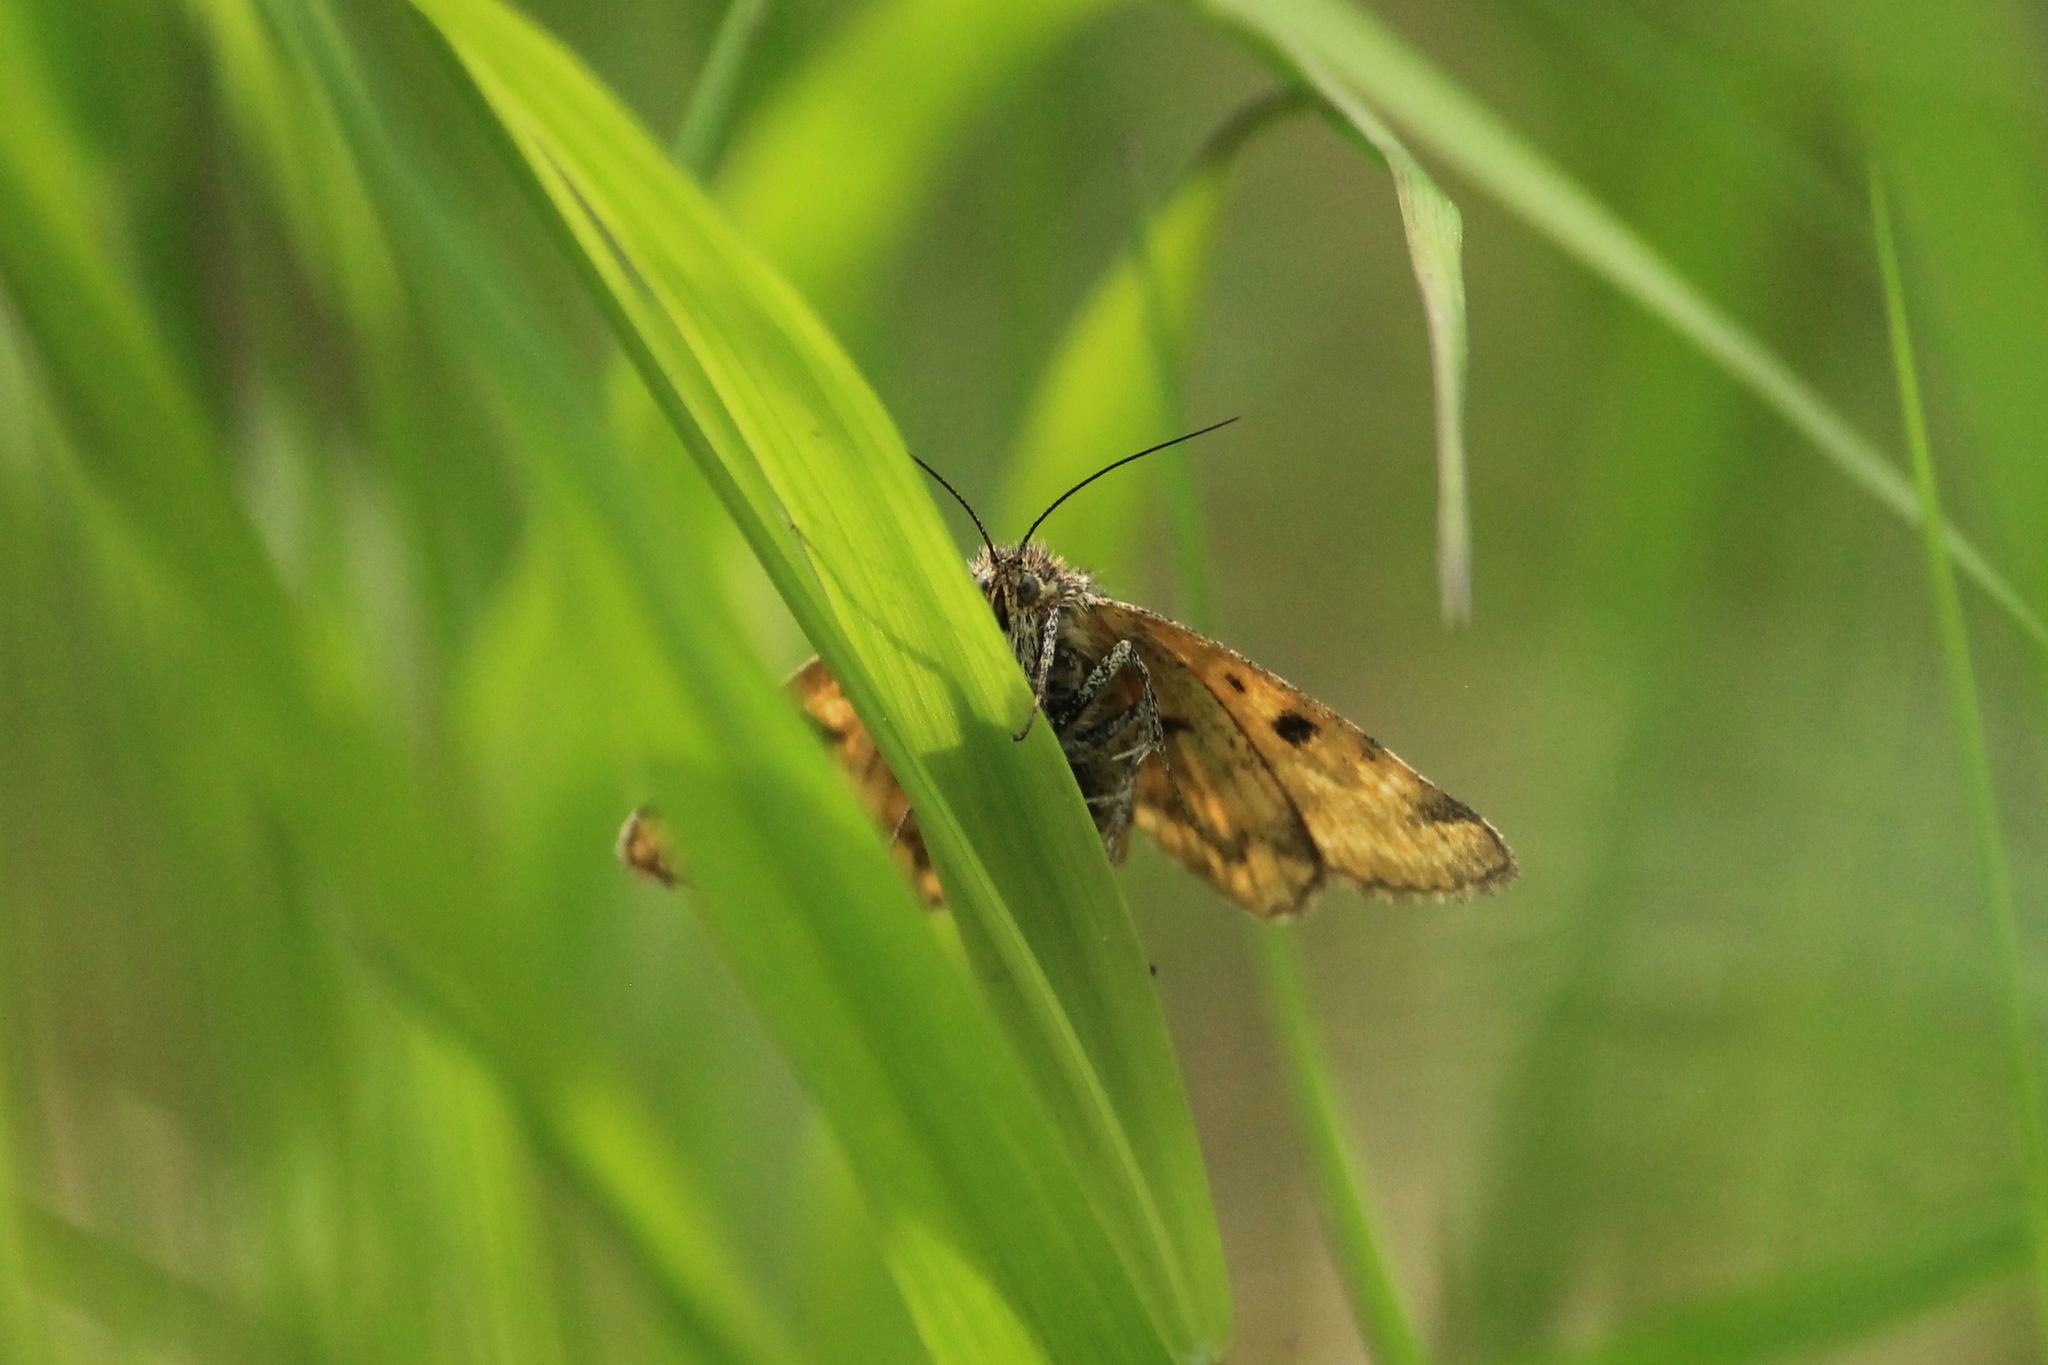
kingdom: Animalia
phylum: Arthropoda
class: Insecta
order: Lepidoptera
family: Erebidae
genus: Euclidia
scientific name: Euclidia glyphica
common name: Burnet companion
